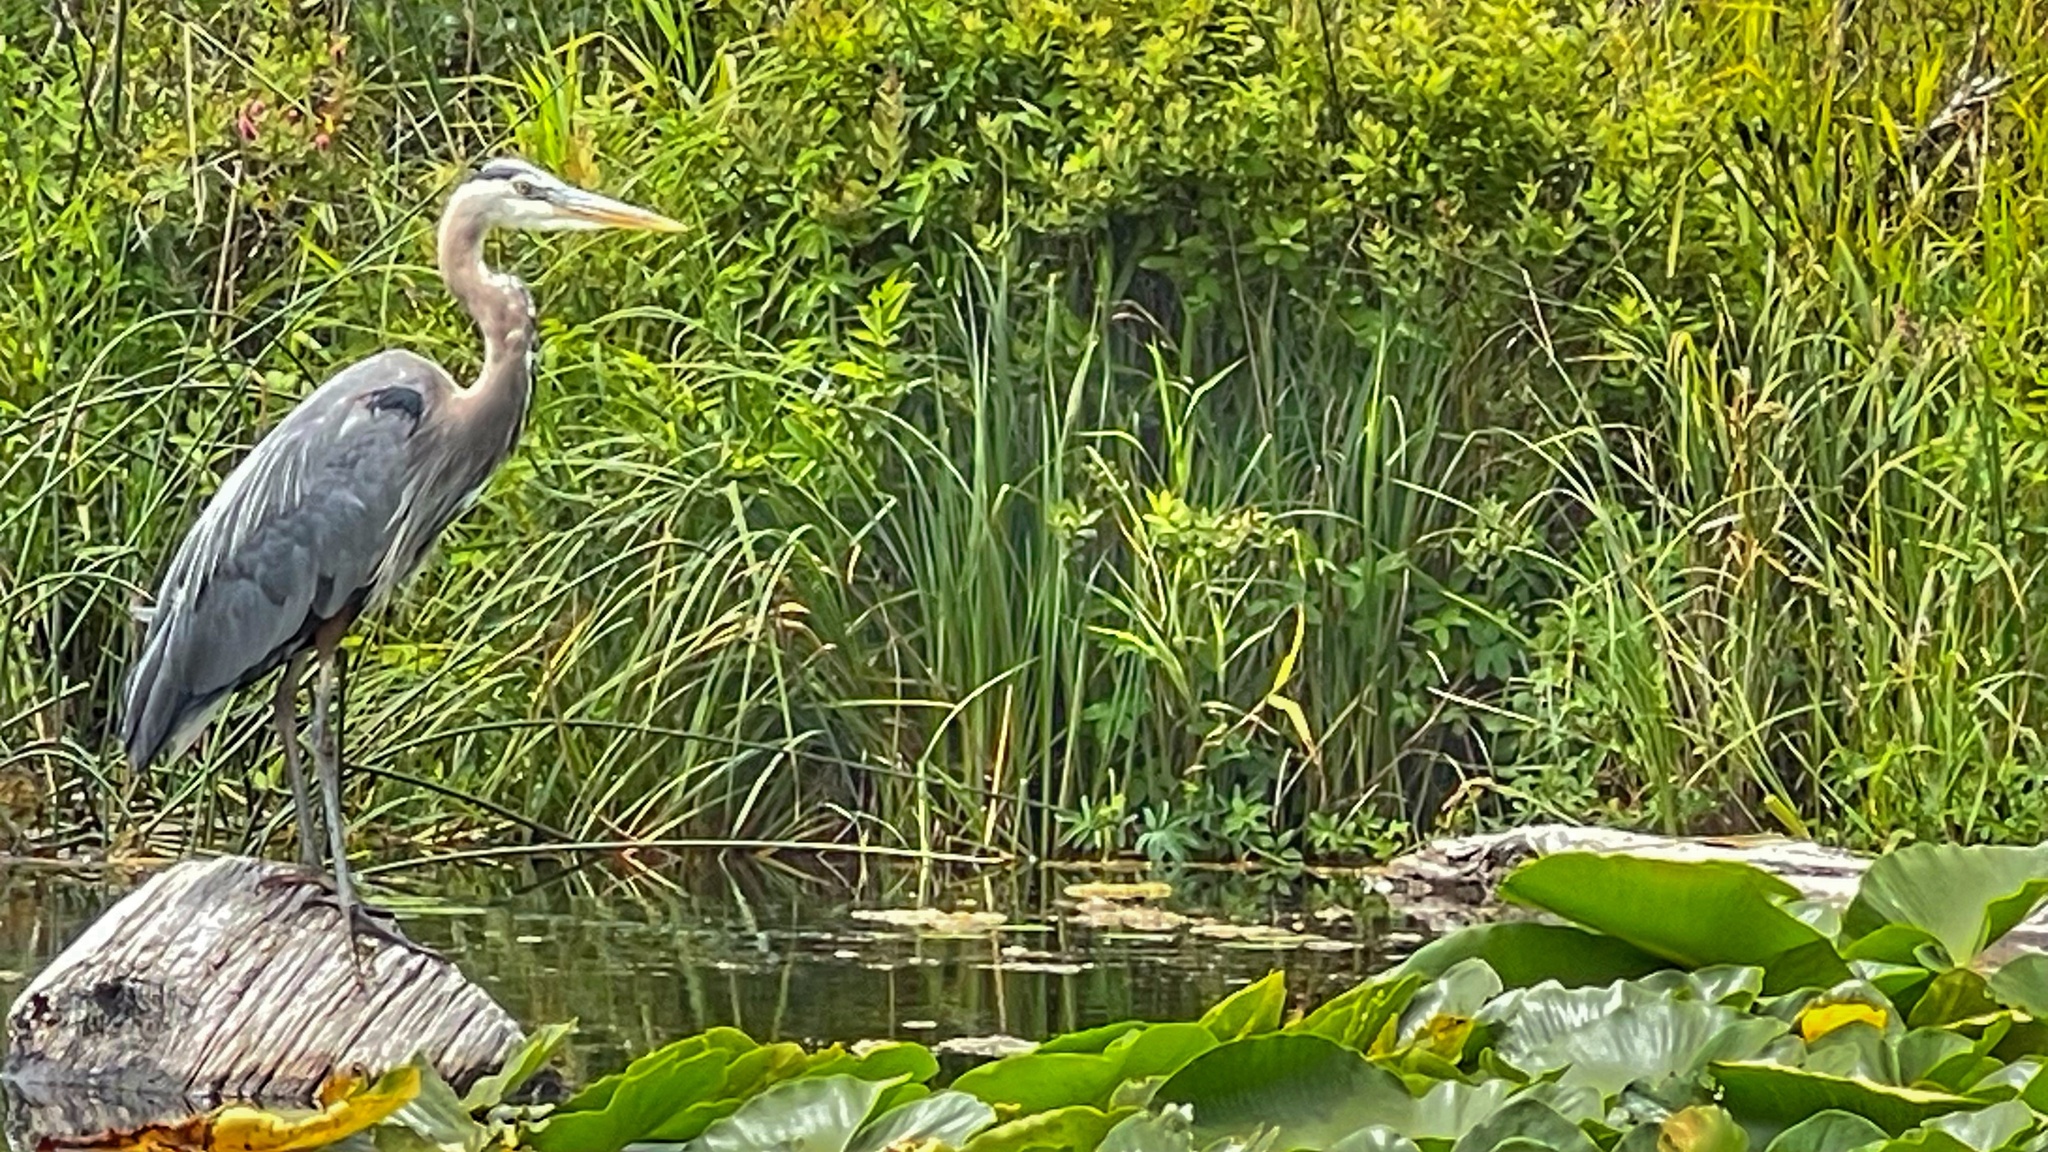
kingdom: Animalia
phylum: Chordata
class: Aves
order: Pelecaniformes
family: Ardeidae
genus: Ardea
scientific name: Ardea herodias
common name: Great blue heron
